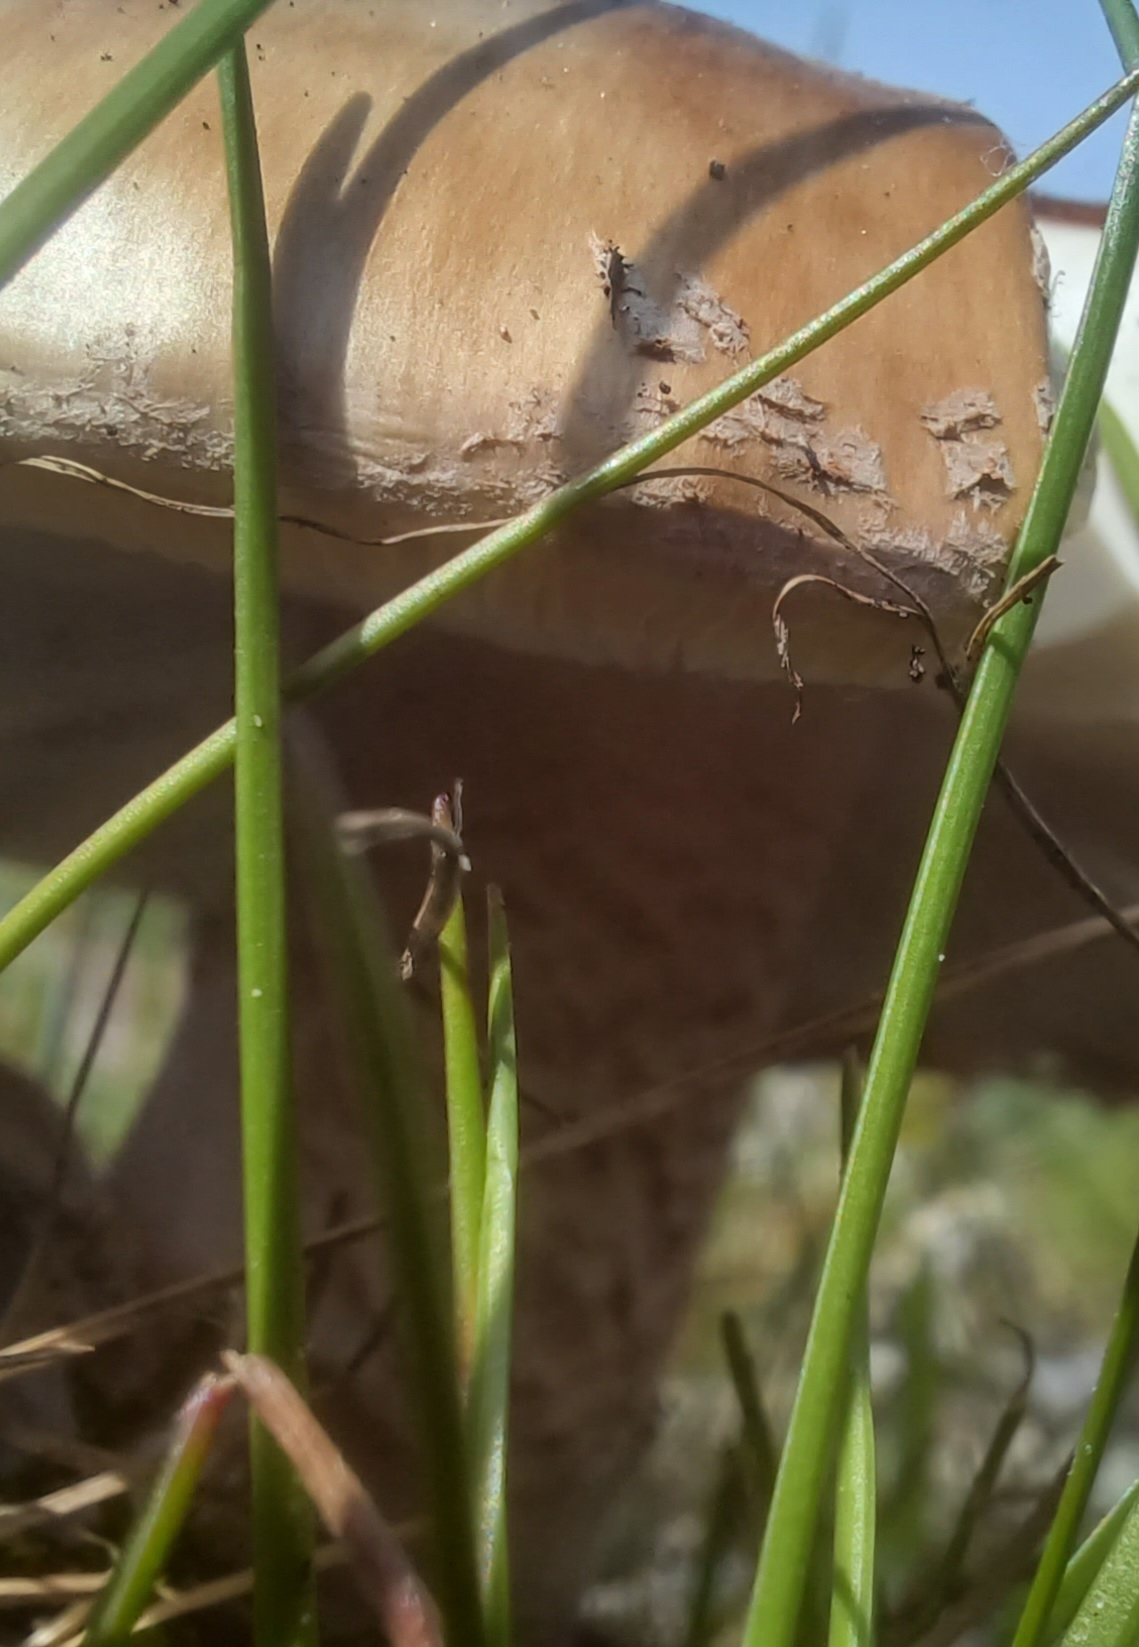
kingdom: Fungi
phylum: Basidiomycota
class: Agaricomycetes
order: Agaricales
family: Amanitaceae
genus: Amanita
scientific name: Amanita rubescens
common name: Blusher
